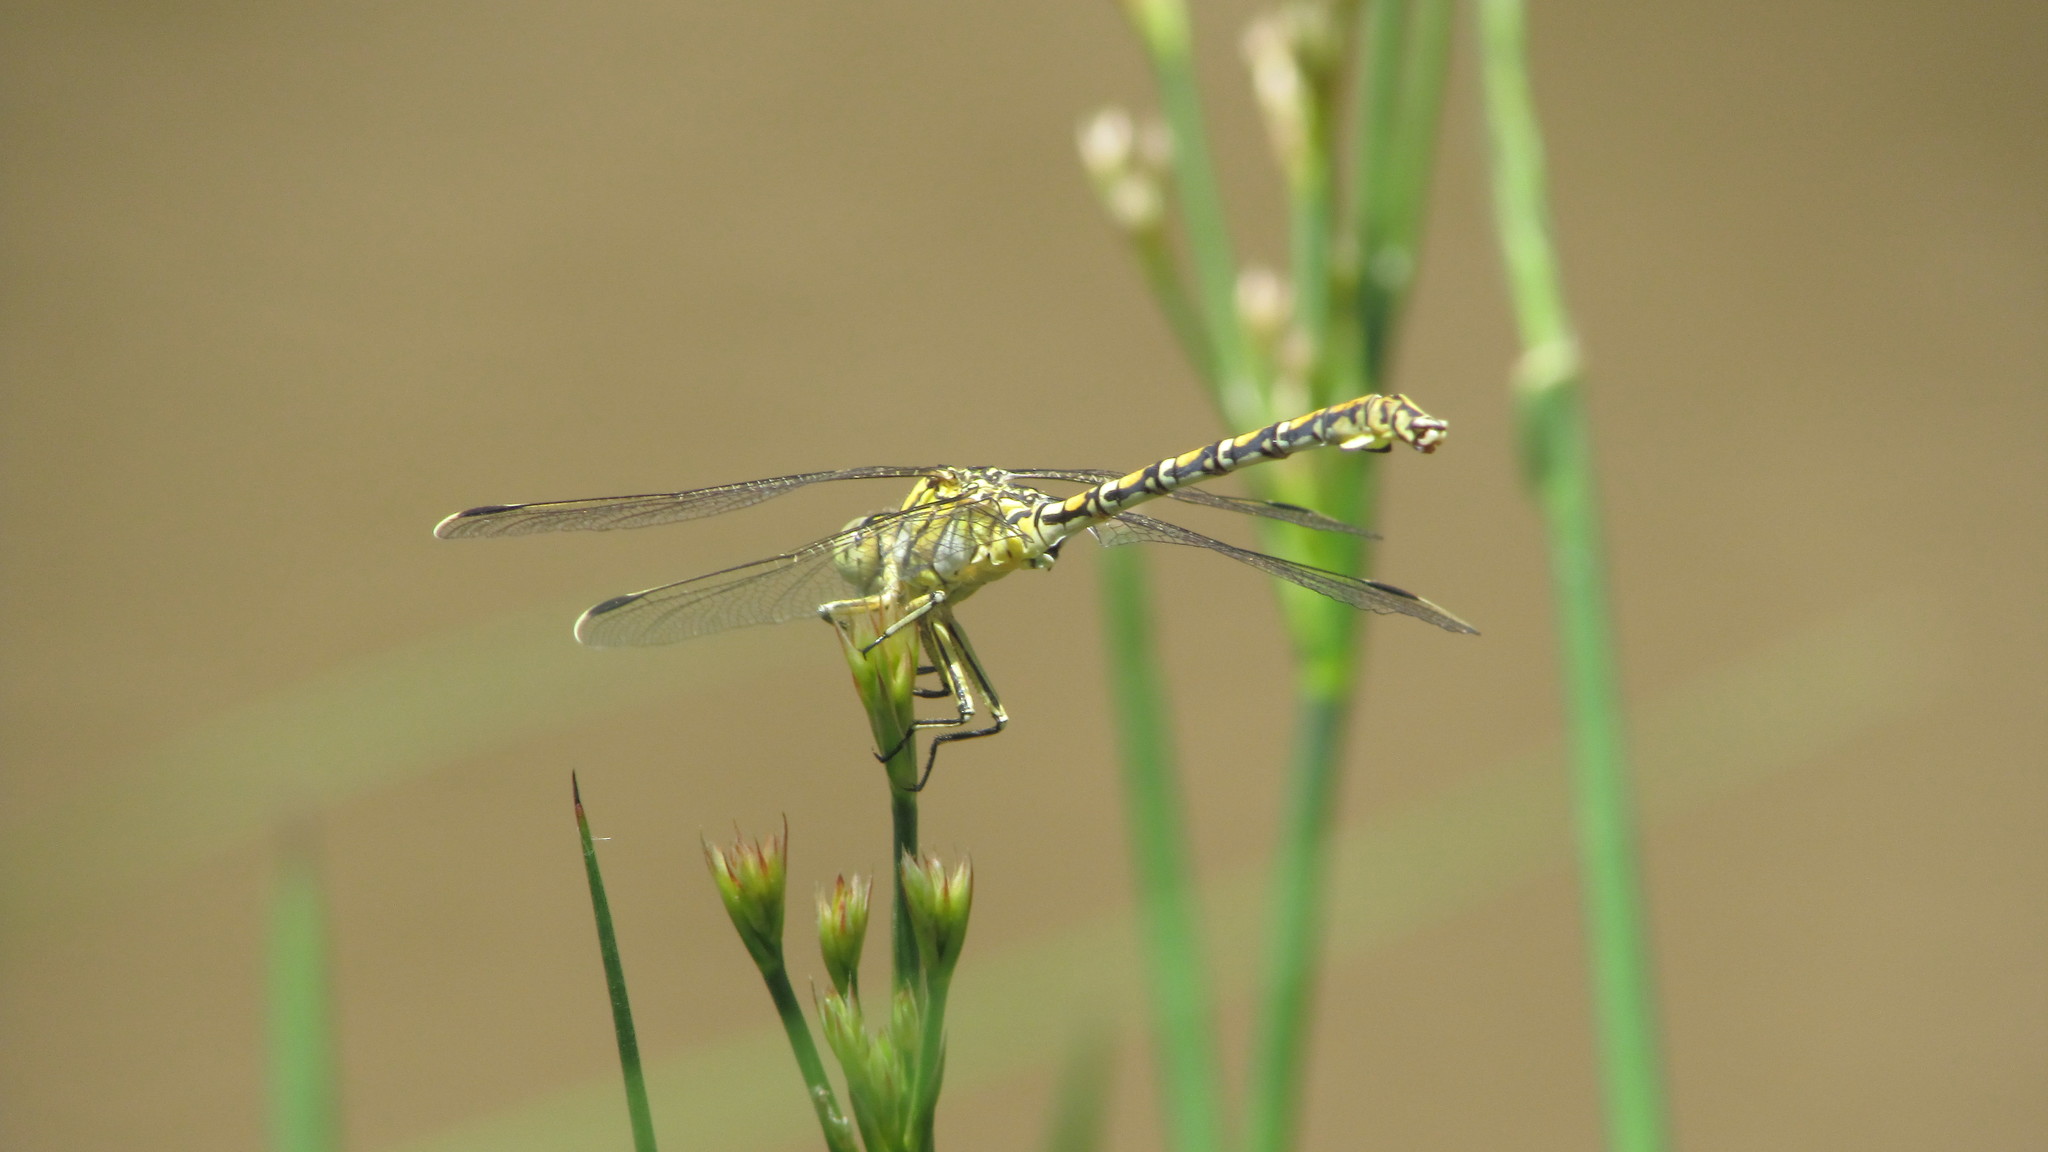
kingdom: Animalia
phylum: Arthropoda
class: Insecta
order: Odonata
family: Gomphidae
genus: Ceratogomphus
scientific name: Ceratogomphus pictus
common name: Common thorntail
